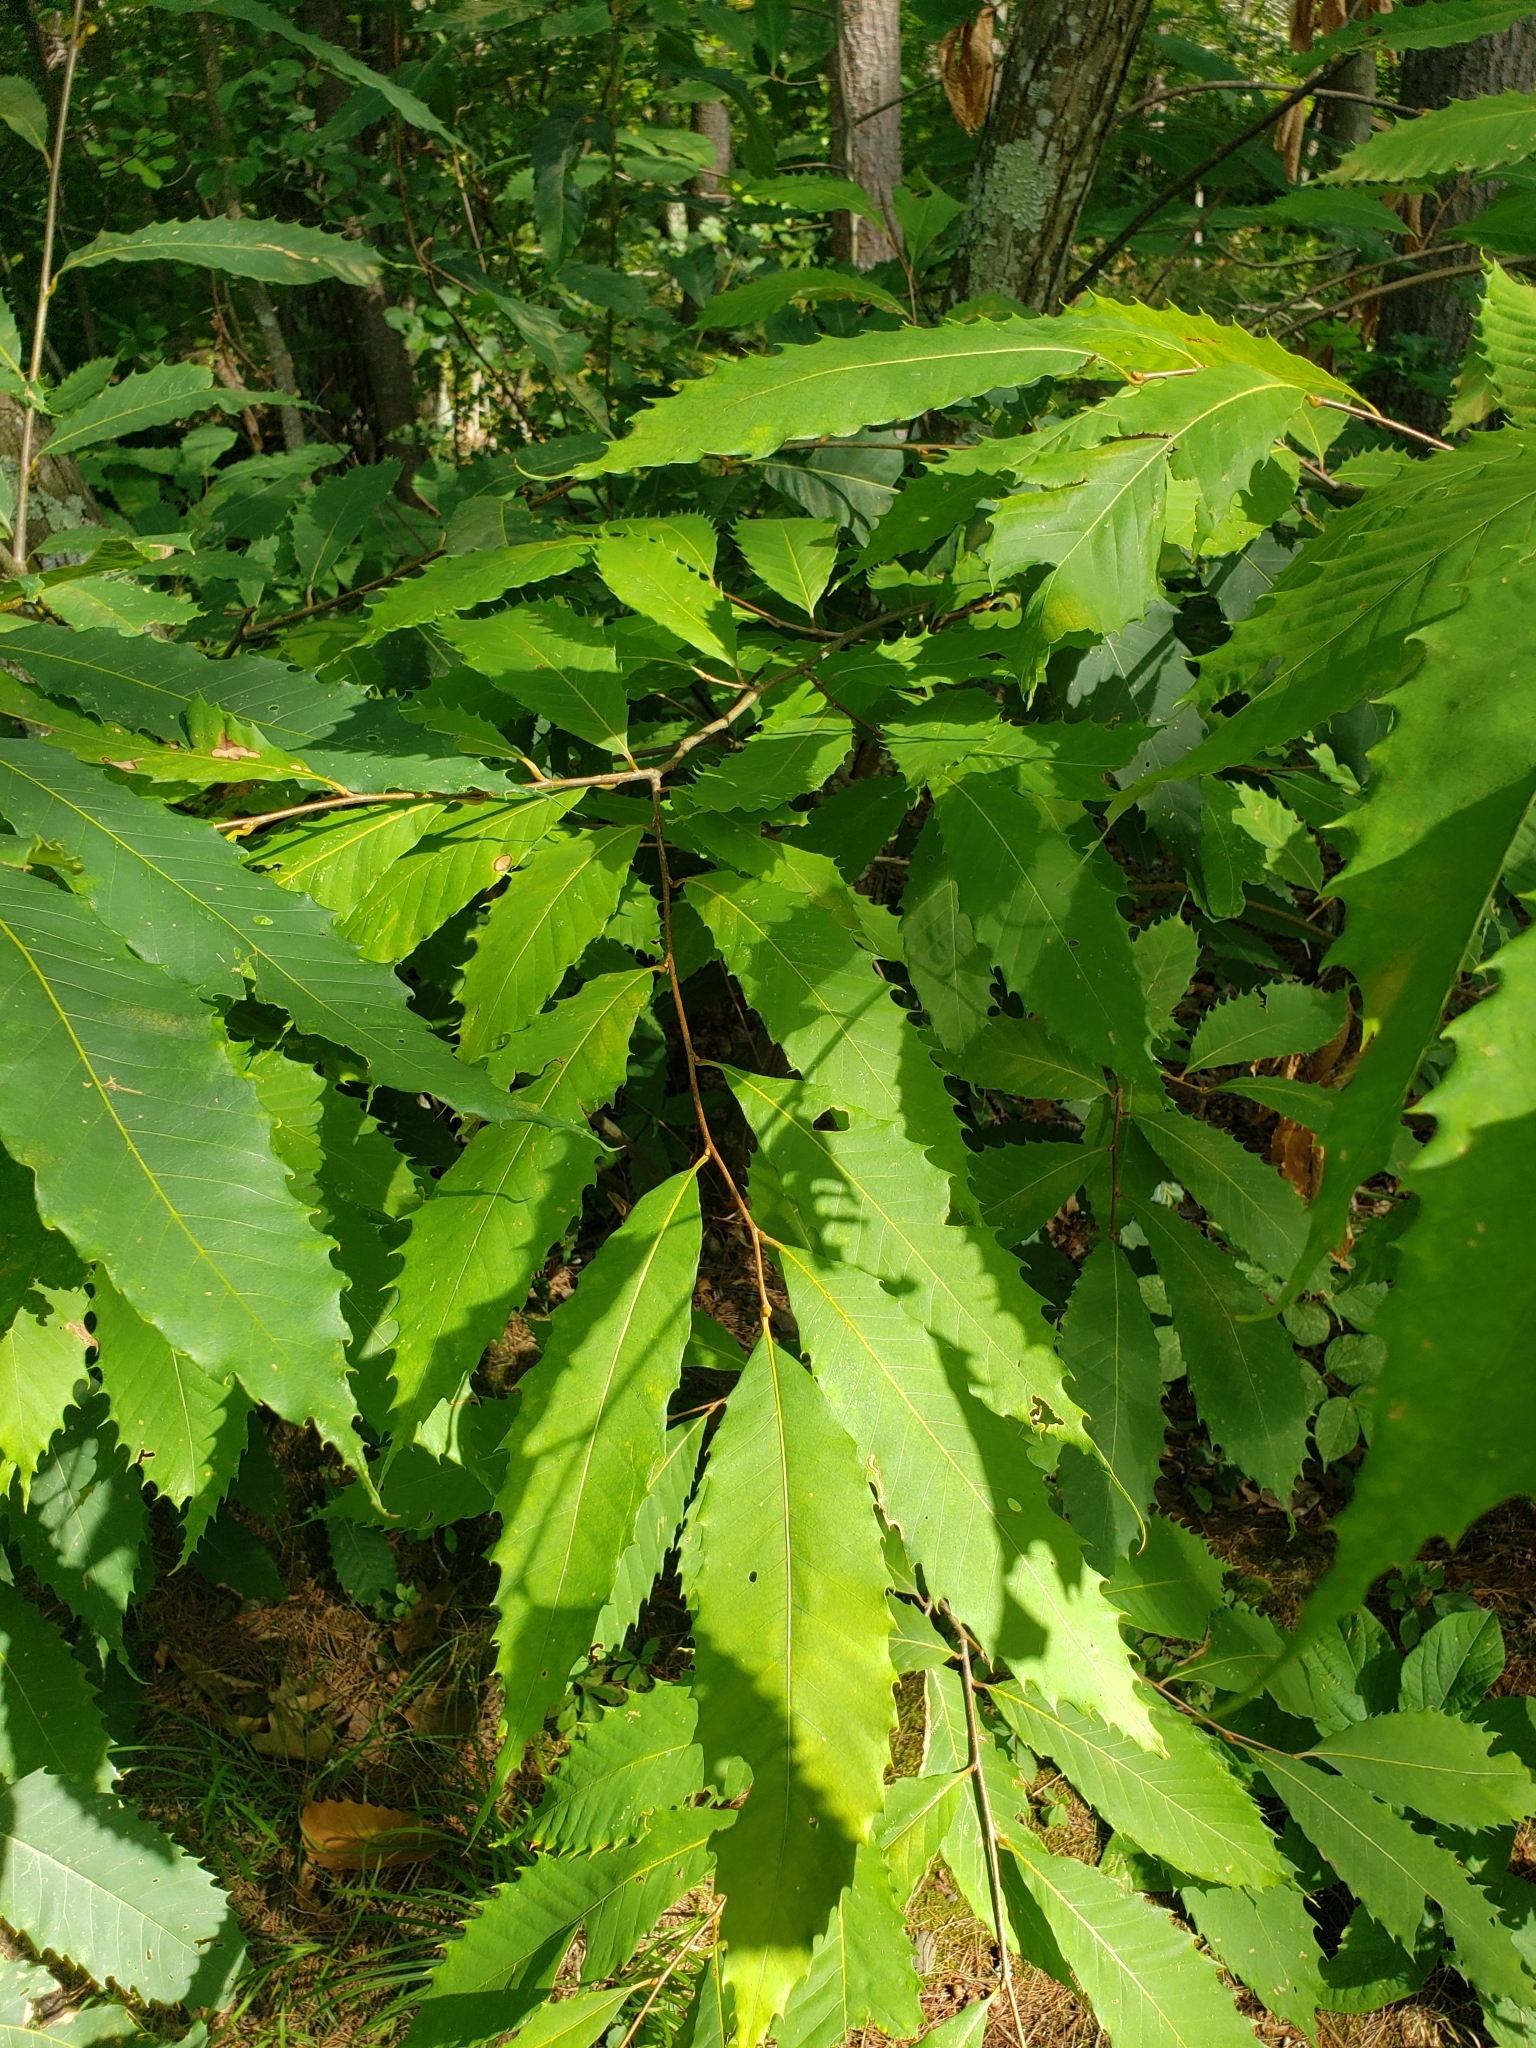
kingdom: Plantae
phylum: Tracheophyta
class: Magnoliopsida
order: Fagales
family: Fagaceae
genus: Castanea
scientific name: Castanea dentata
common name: American chestnut
